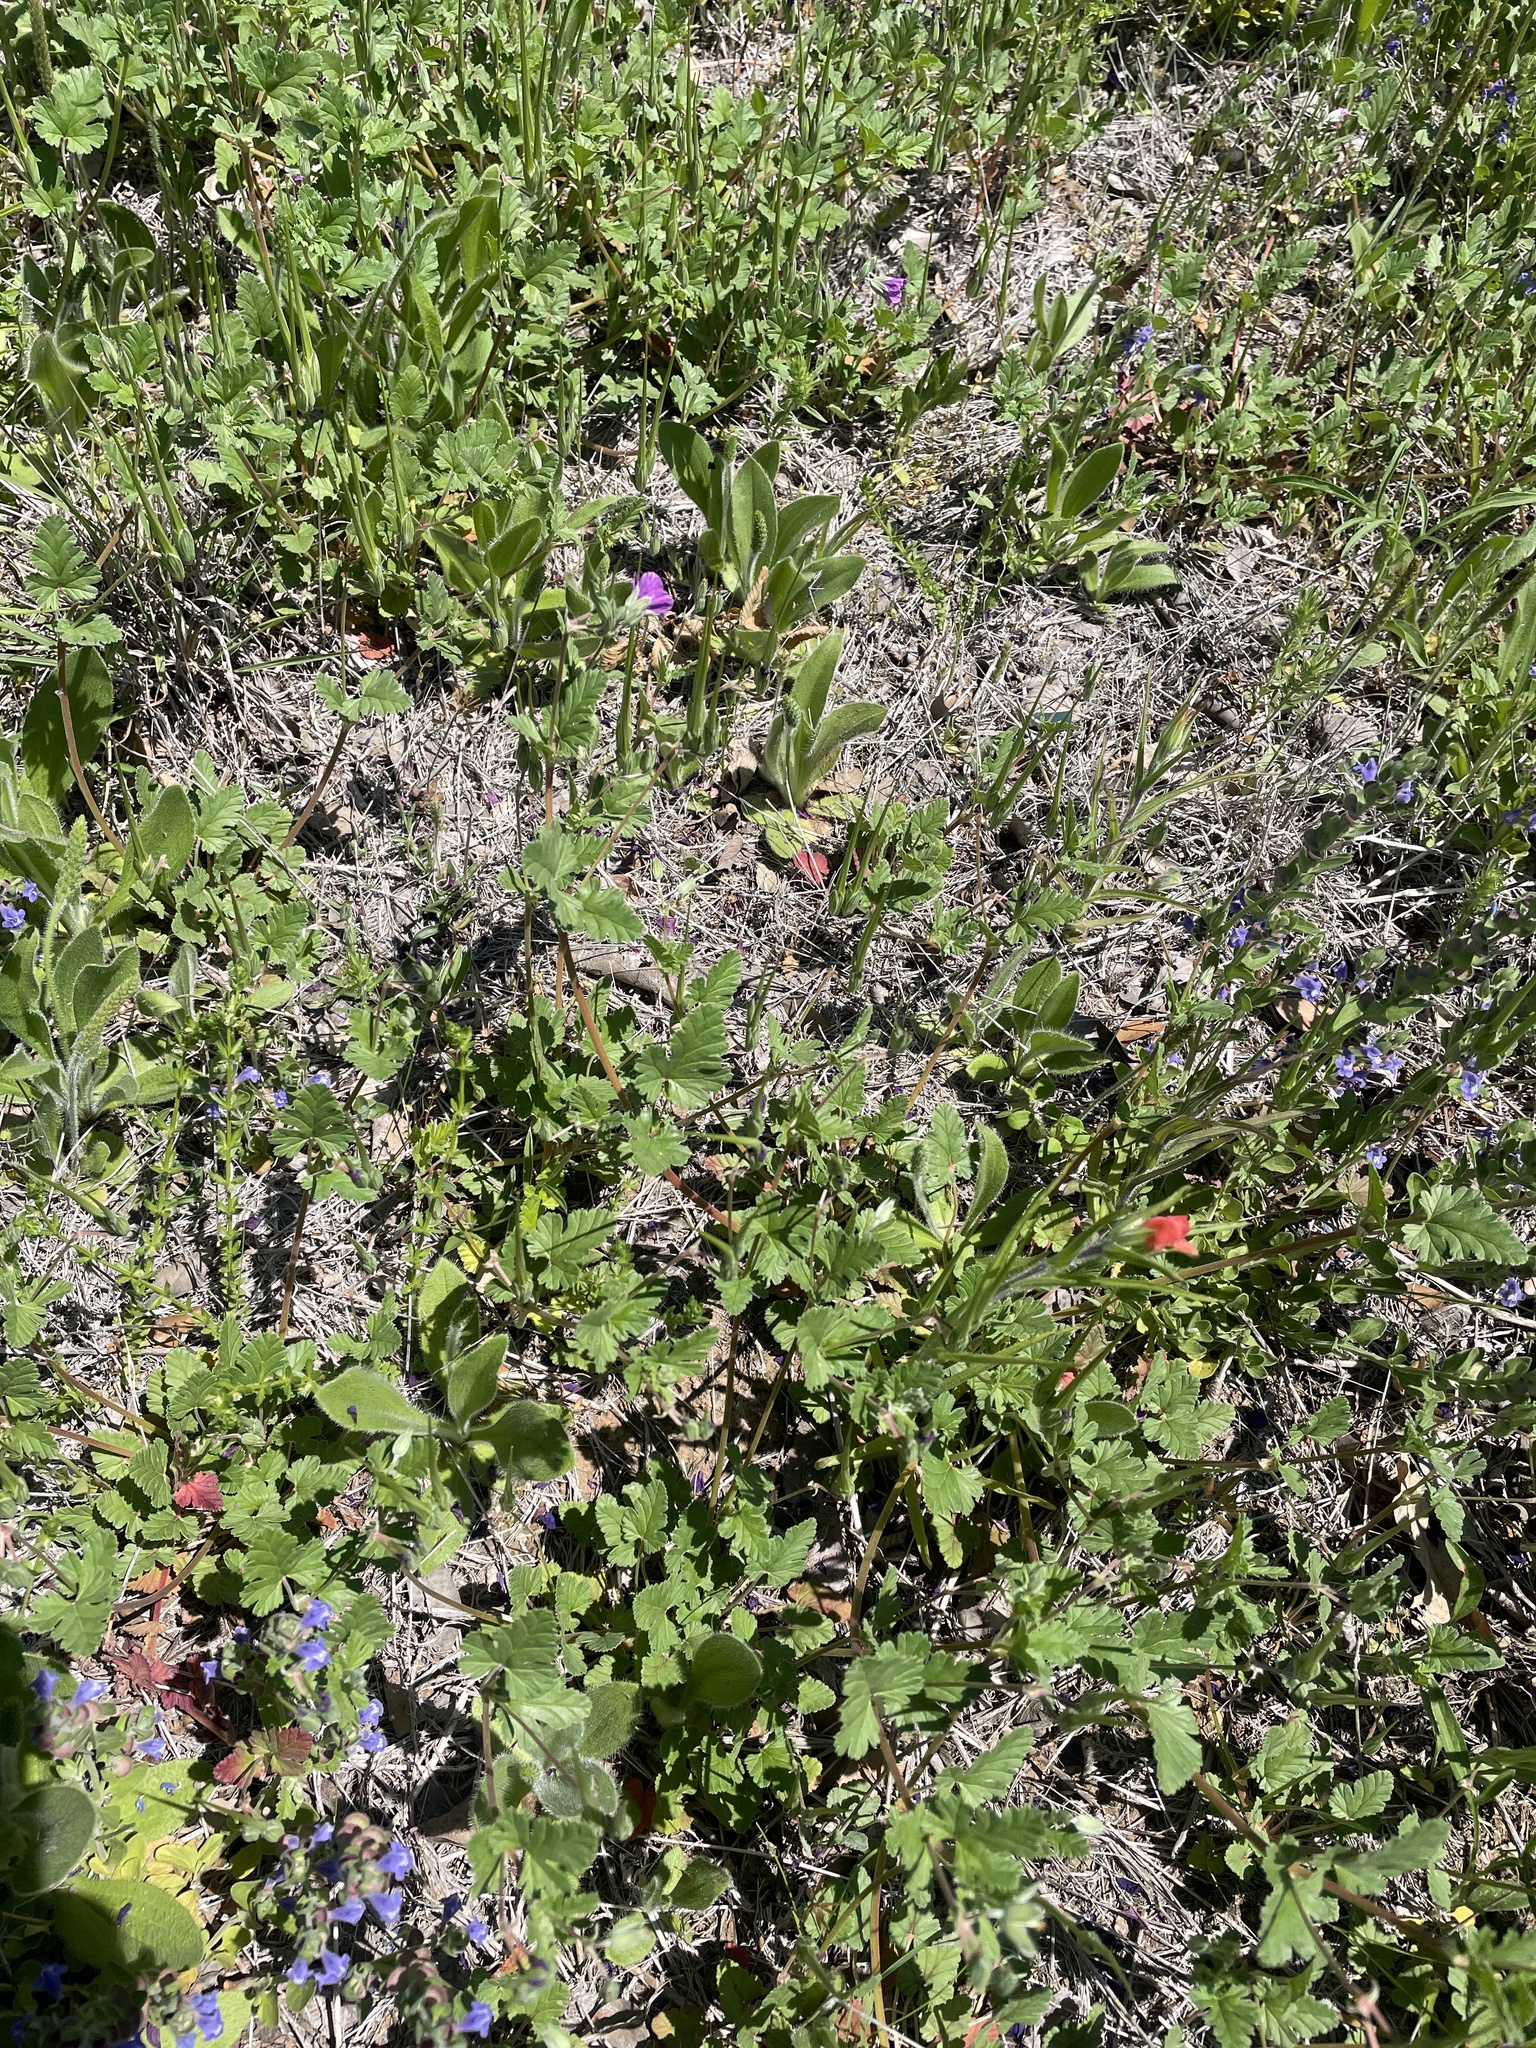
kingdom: Plantae
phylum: Tracheophyta
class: Magnoliopsida
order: Geraniales
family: Geraniaceae
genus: Erodium
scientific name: Erodium texanum
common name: Texas stork's-bill
